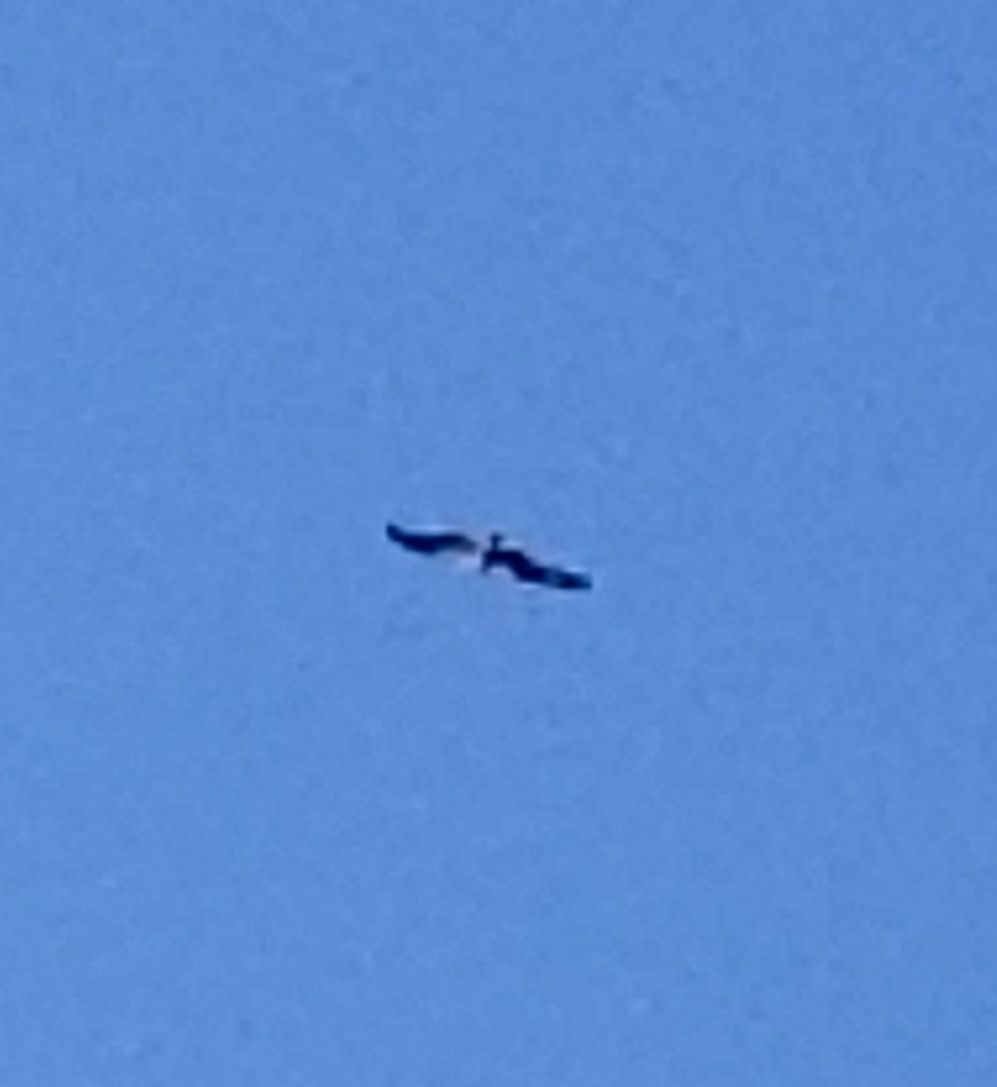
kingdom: Animalia
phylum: Chordata
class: Aves
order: Accipitriformes
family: Pandionidae
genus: Pandion
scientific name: Pandion haliaetus
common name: Osprey
